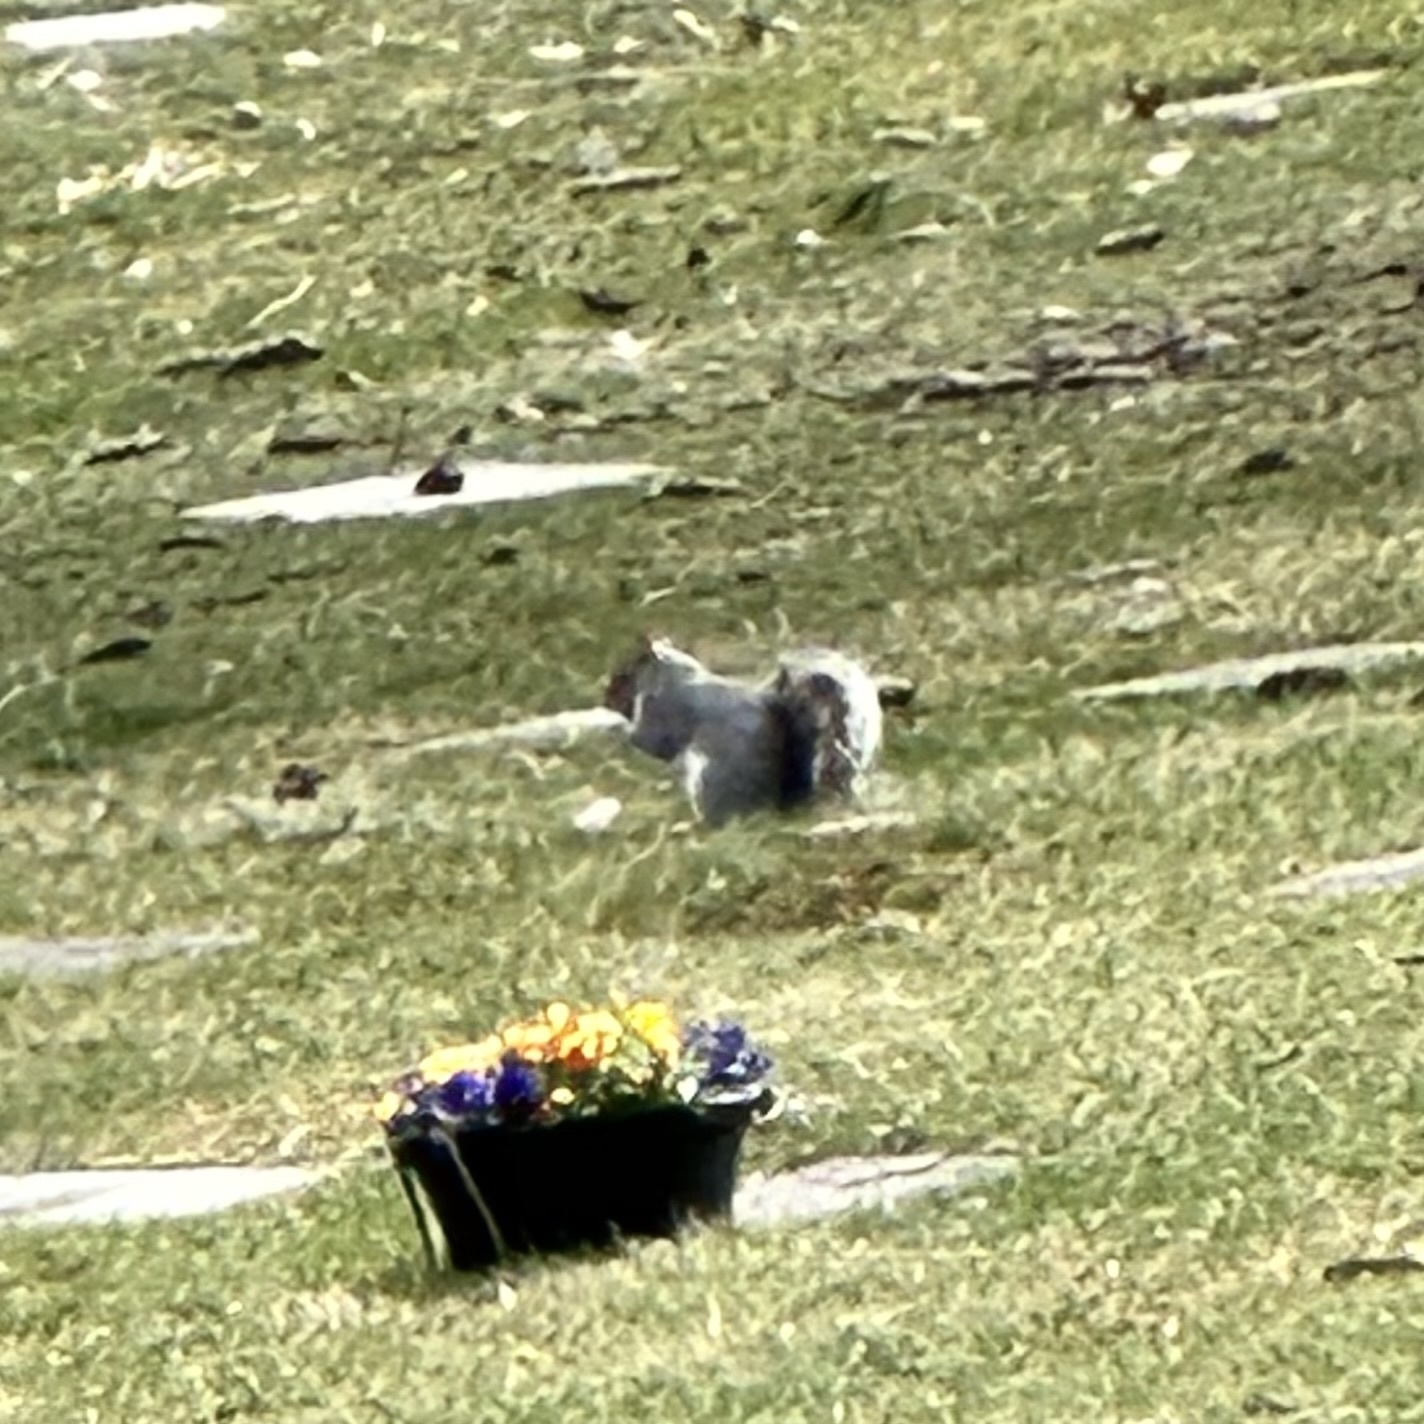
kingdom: Animalia
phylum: Chordata
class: Mammalia
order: Rodentia
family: Sciuridae
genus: Sciurus
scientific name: Sciurus carolinensis
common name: Eastern gray squirrel
